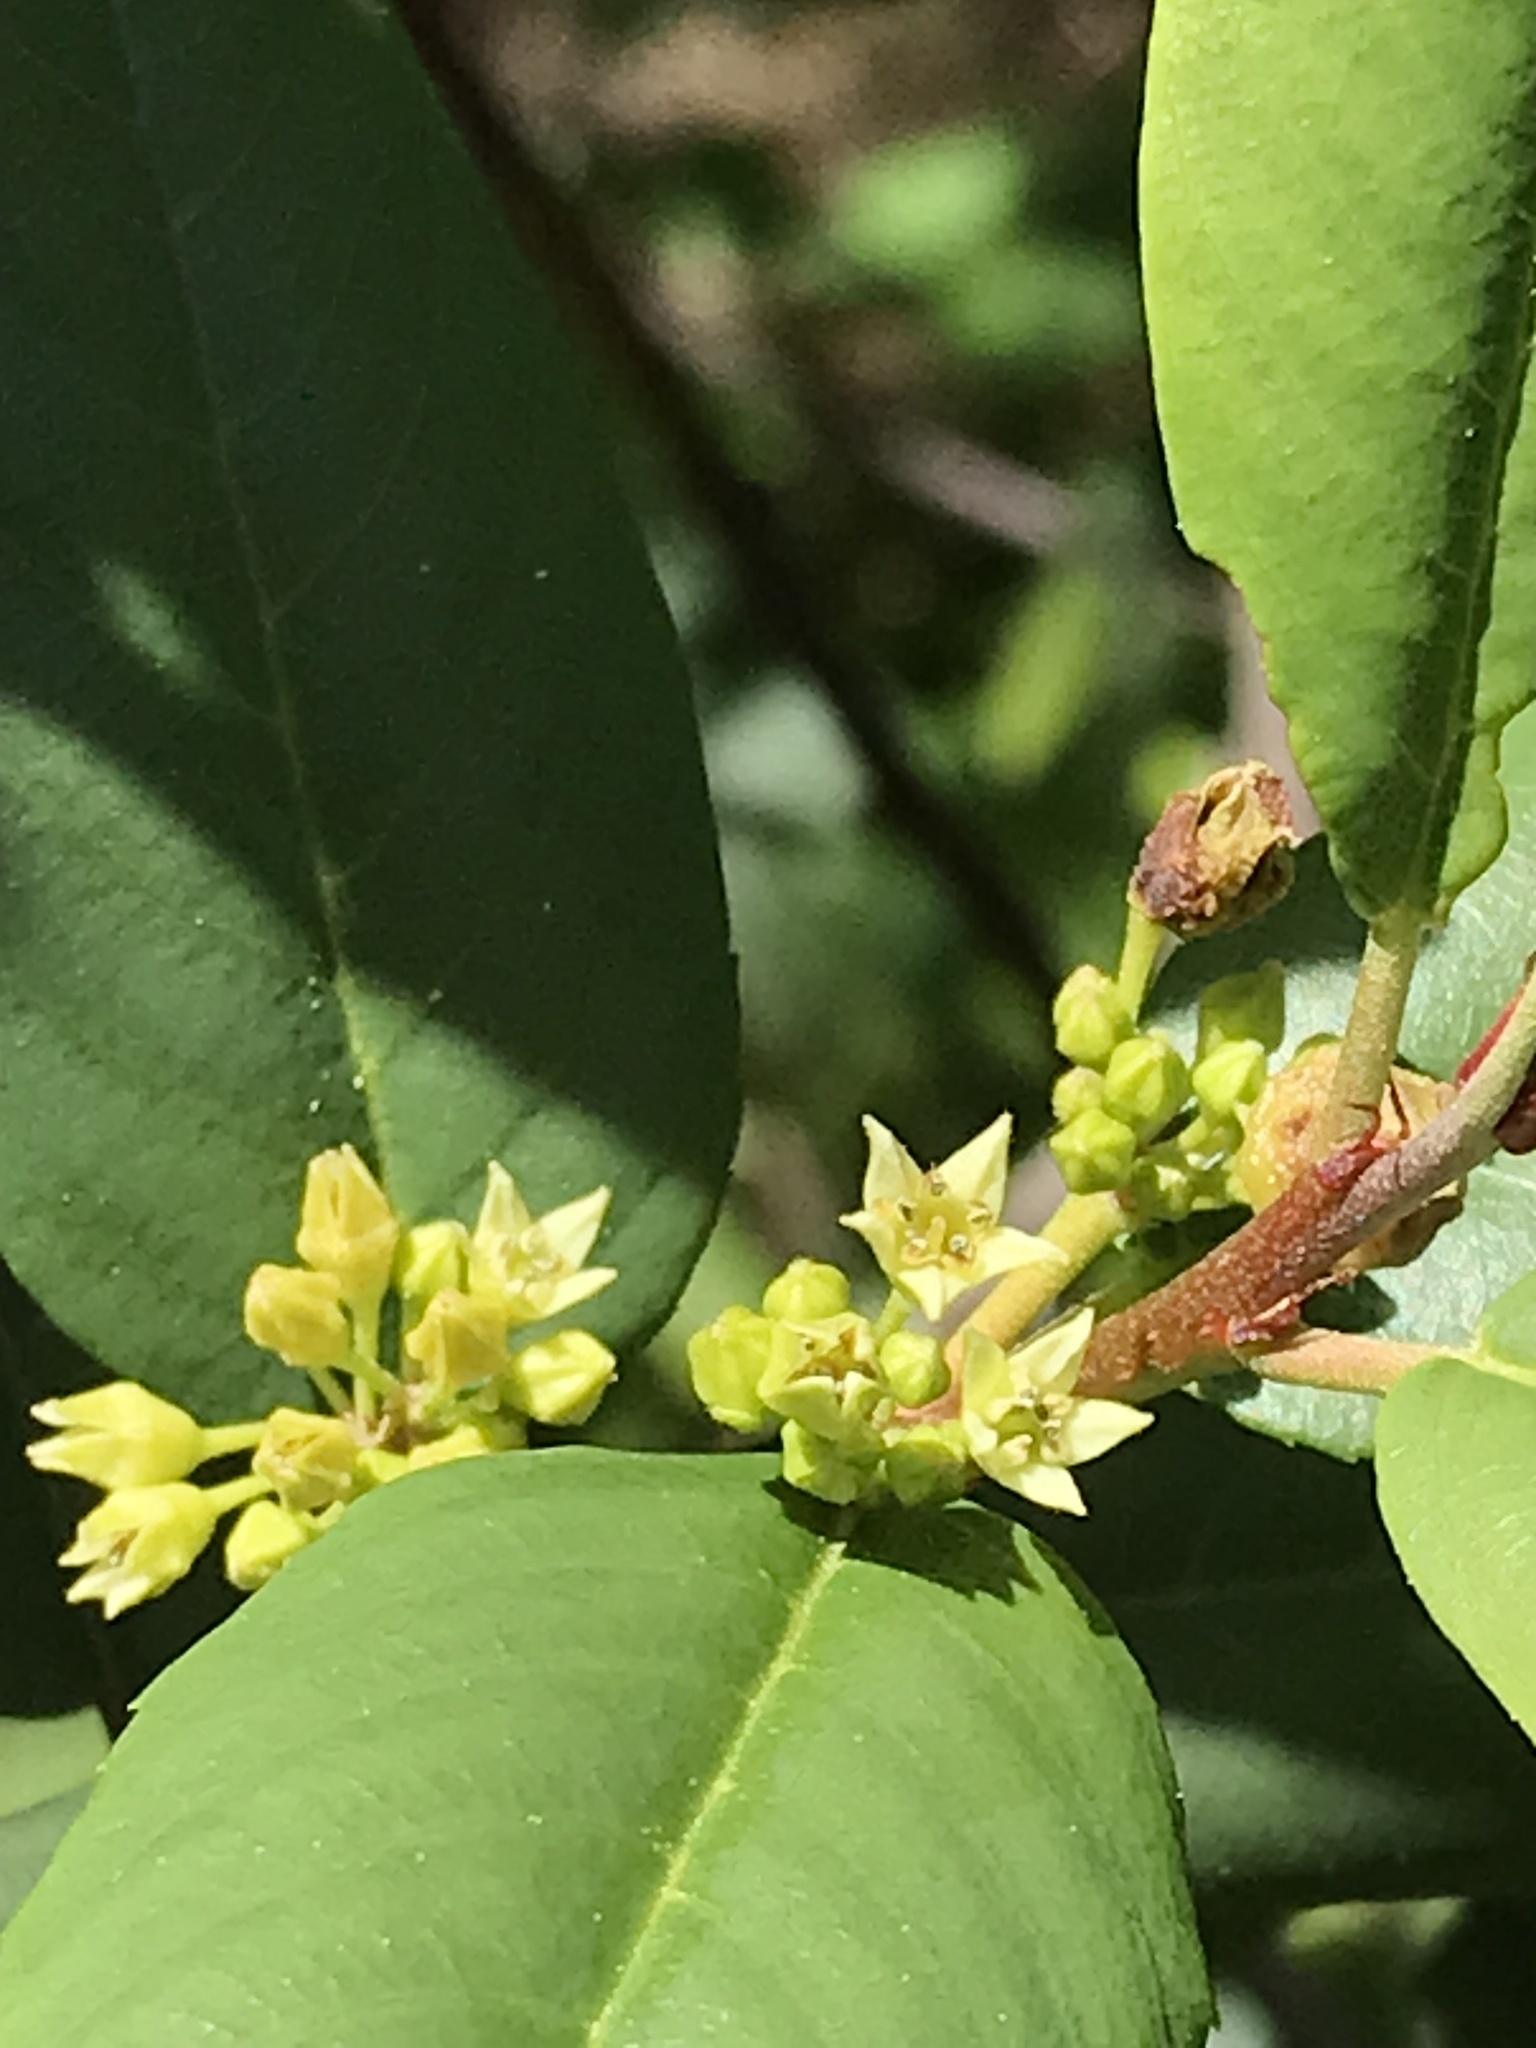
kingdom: Plantae
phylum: Tracheophyta
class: Magnoliopsida
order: Rosales
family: Rhamnaceae
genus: Frangula
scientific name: Frangula californica
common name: California buckthorn
